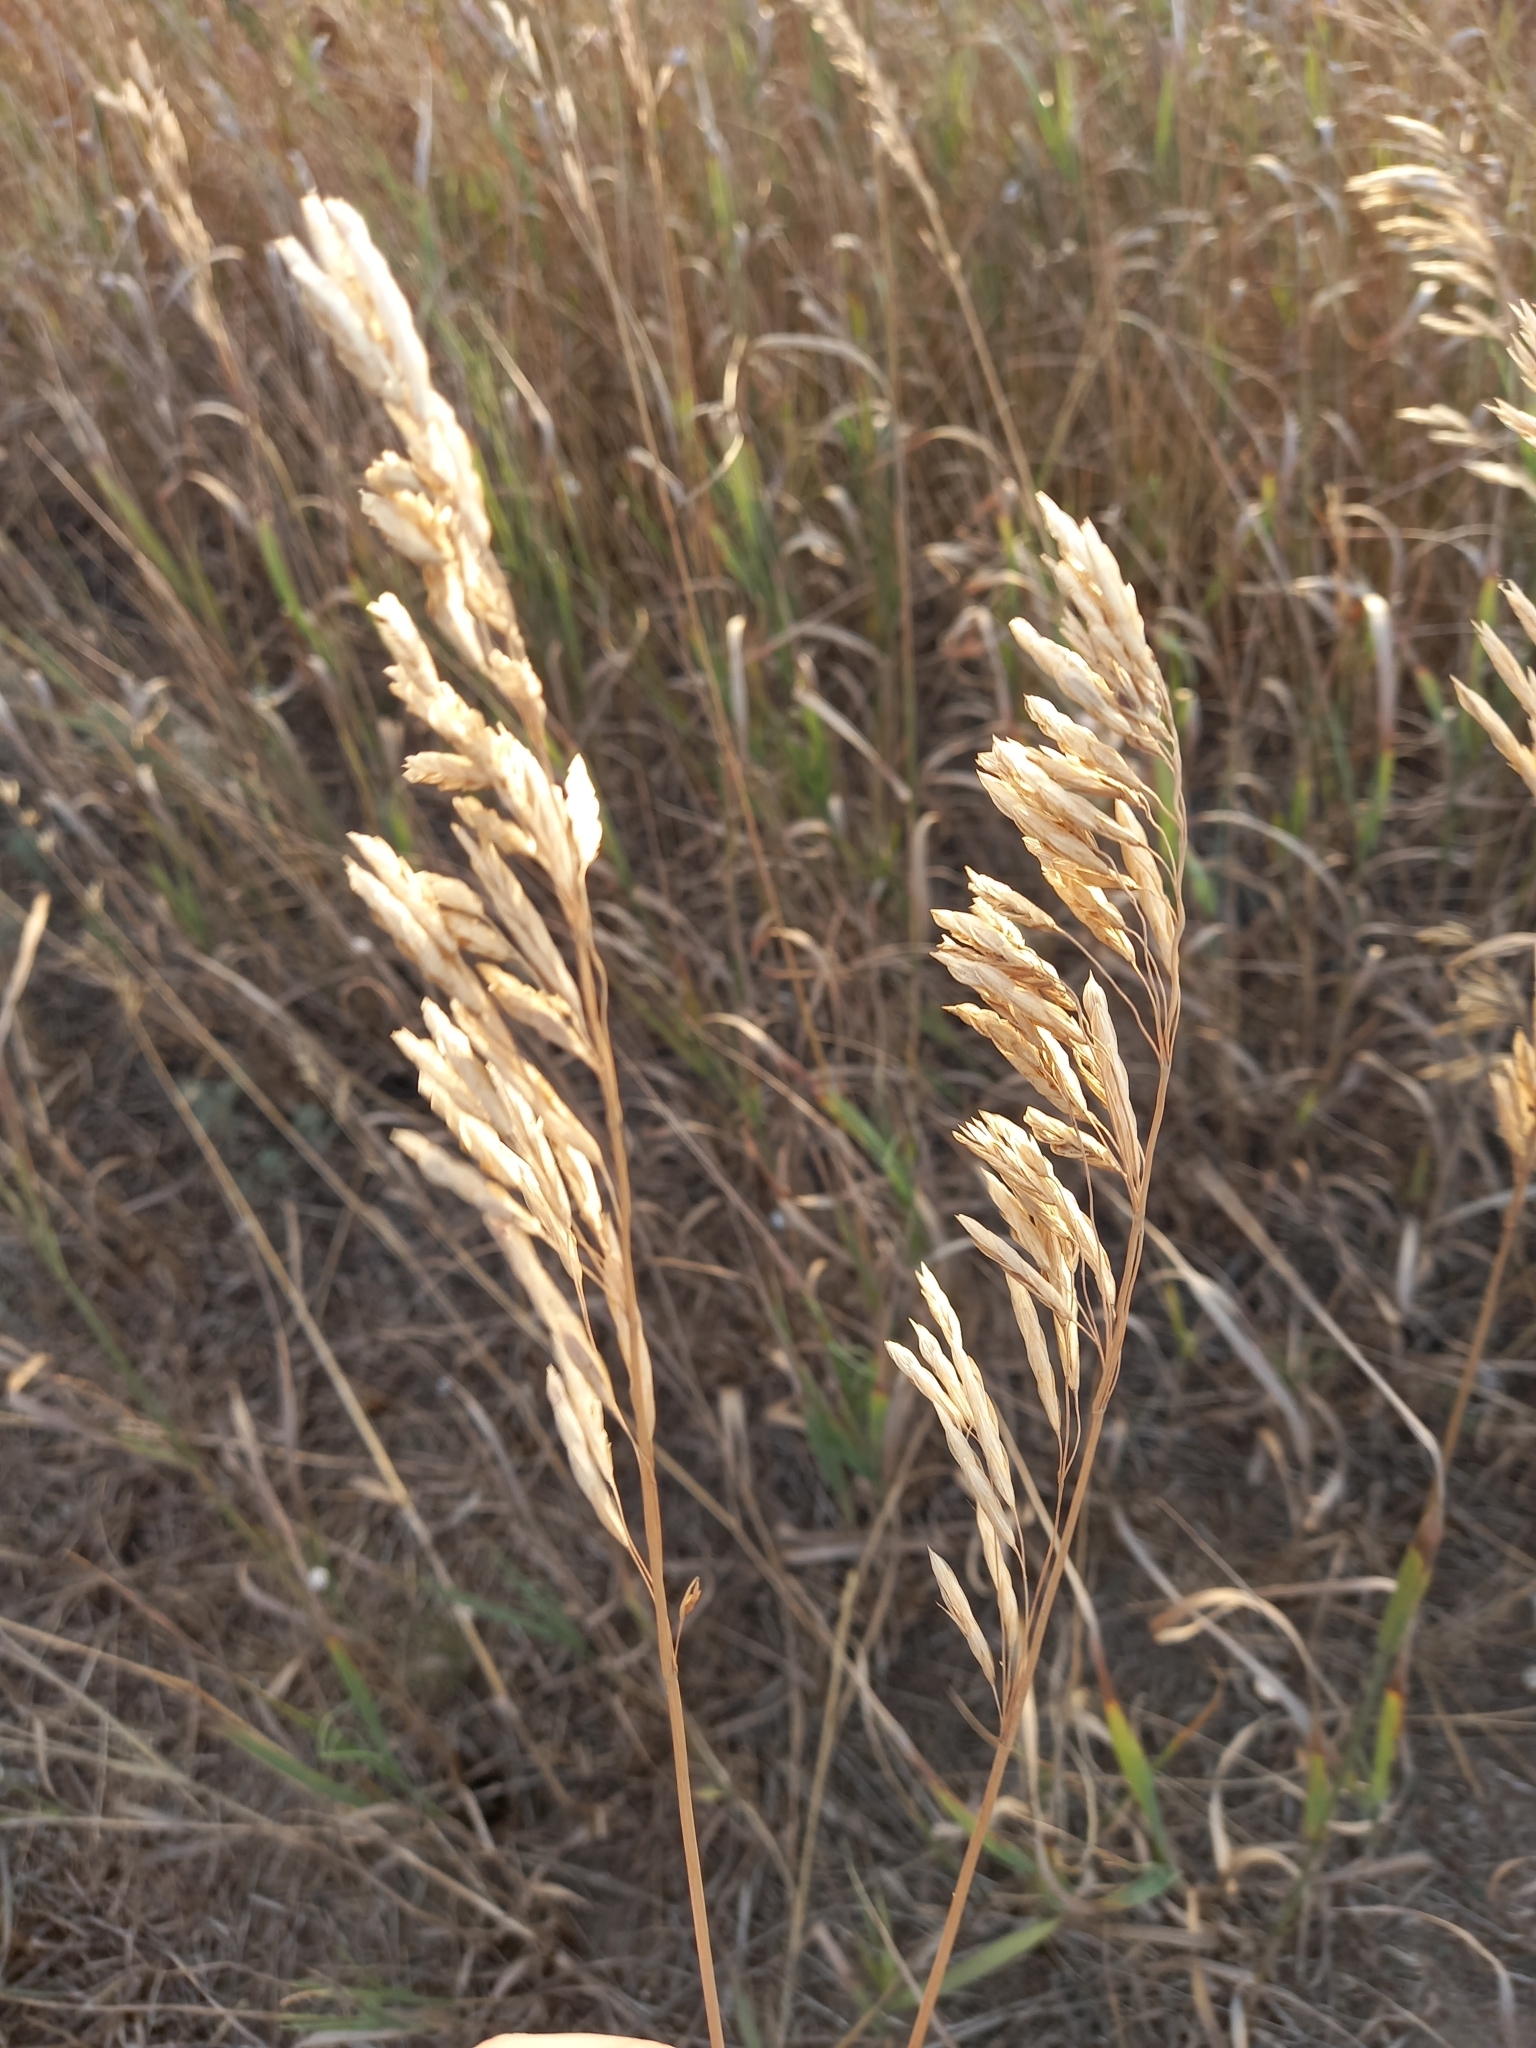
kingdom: Plantae
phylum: Tracheophyta
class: Liliopsida
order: Poales
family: Poaceae
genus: Bromus
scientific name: Bromus inermis
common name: Smooth brome
